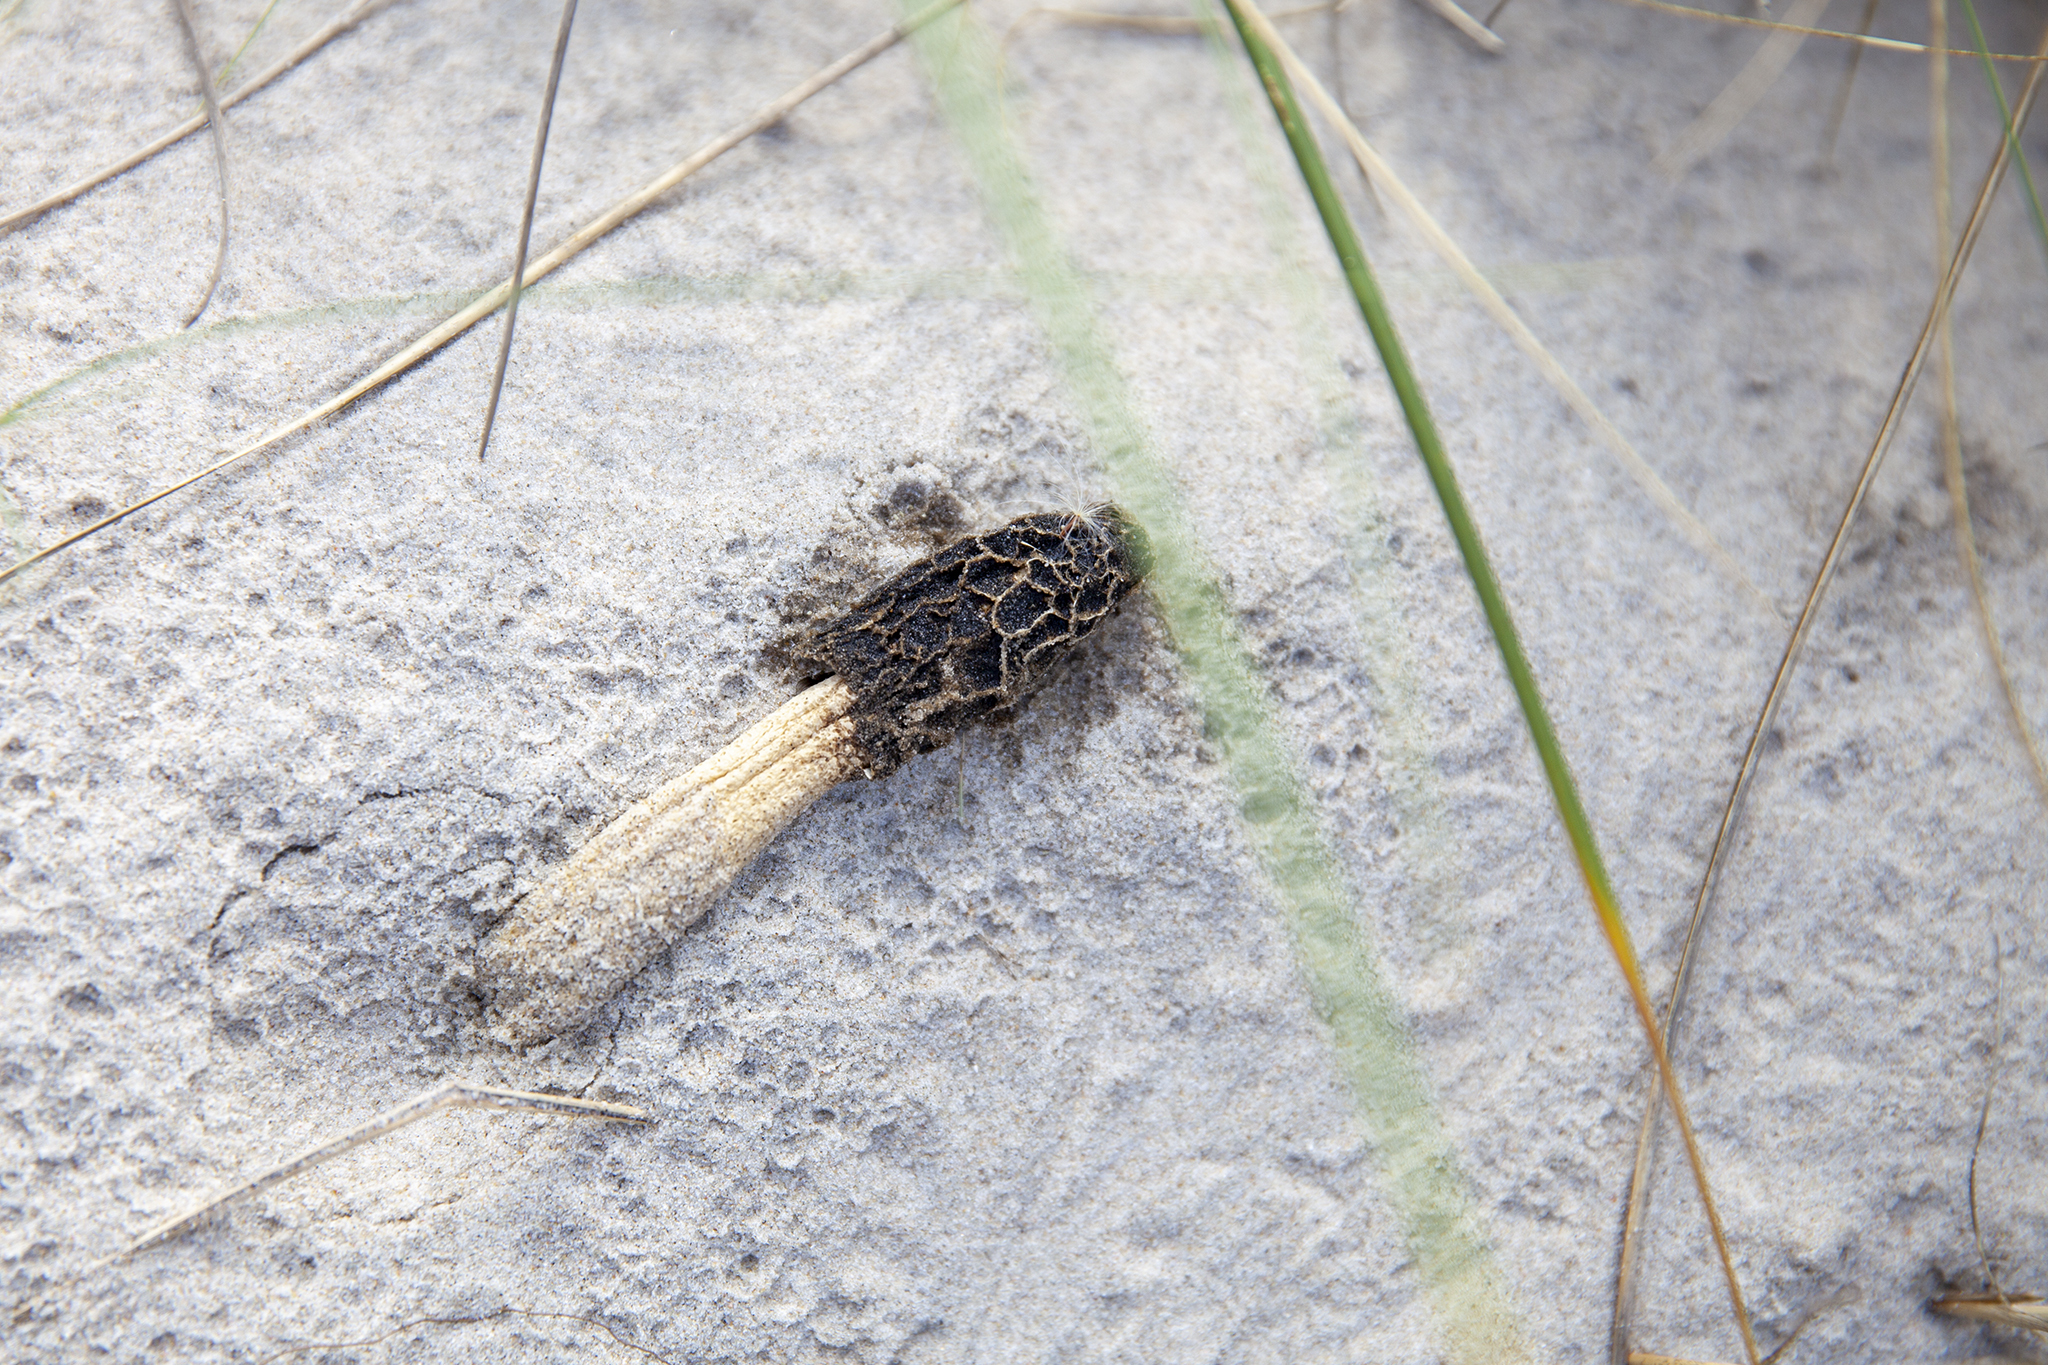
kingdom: Fungi
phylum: Basidiomycota
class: Agaricomycetes
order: Phallales
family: Phallaceae
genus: Phallus
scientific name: Phallus hadriani
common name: Sand stinkhorn
